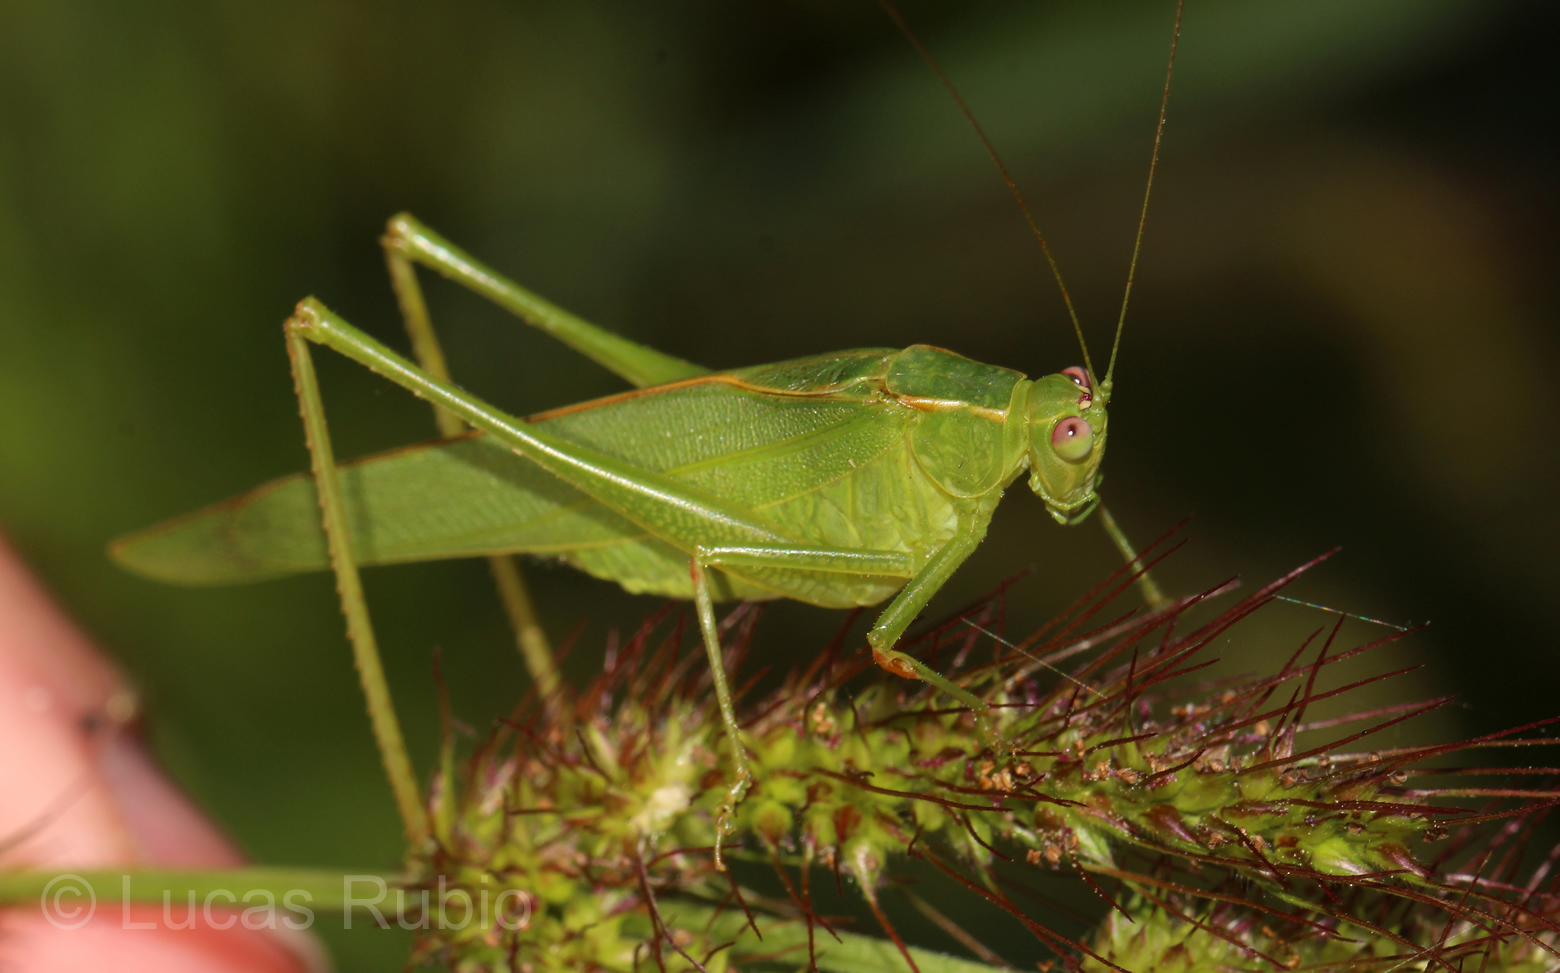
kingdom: Animalia
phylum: Arthropoda
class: Insecta
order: Orthoptera
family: Tettigoniidae
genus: Ligocatinus
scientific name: Ligocatinus spinatus
